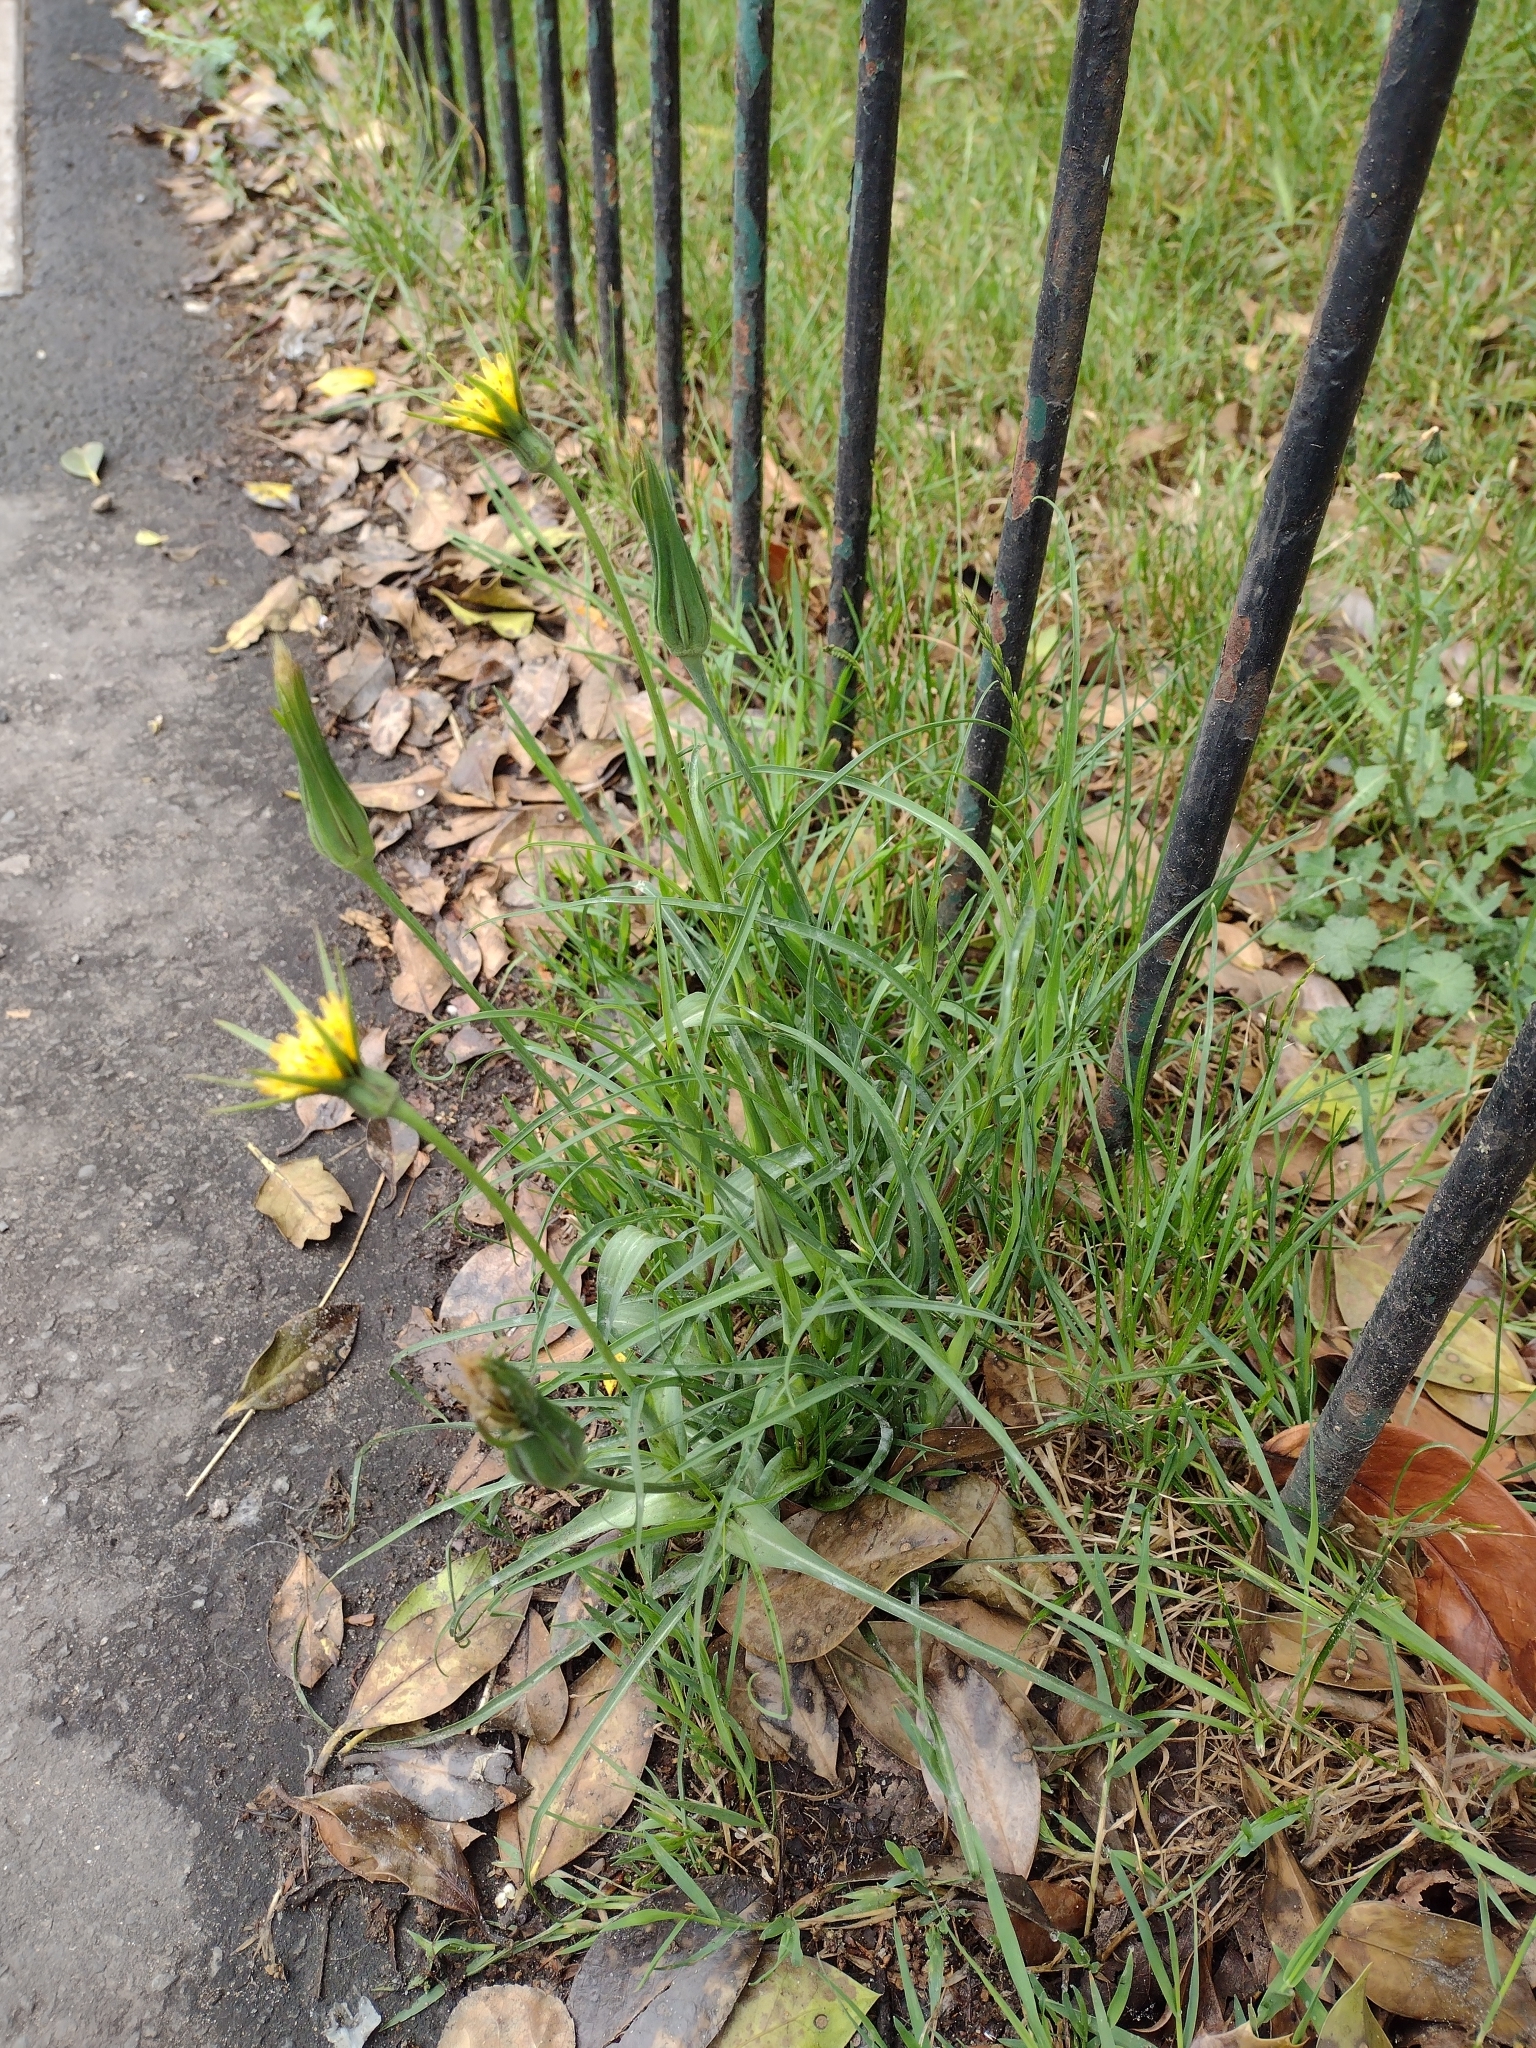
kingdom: Plantae
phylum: Tracheophyta
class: Magnoliopsida
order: Asterales
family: Asteraceae
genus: Tragopogon
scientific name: Tragopogon pratensis
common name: Goat's-beard
